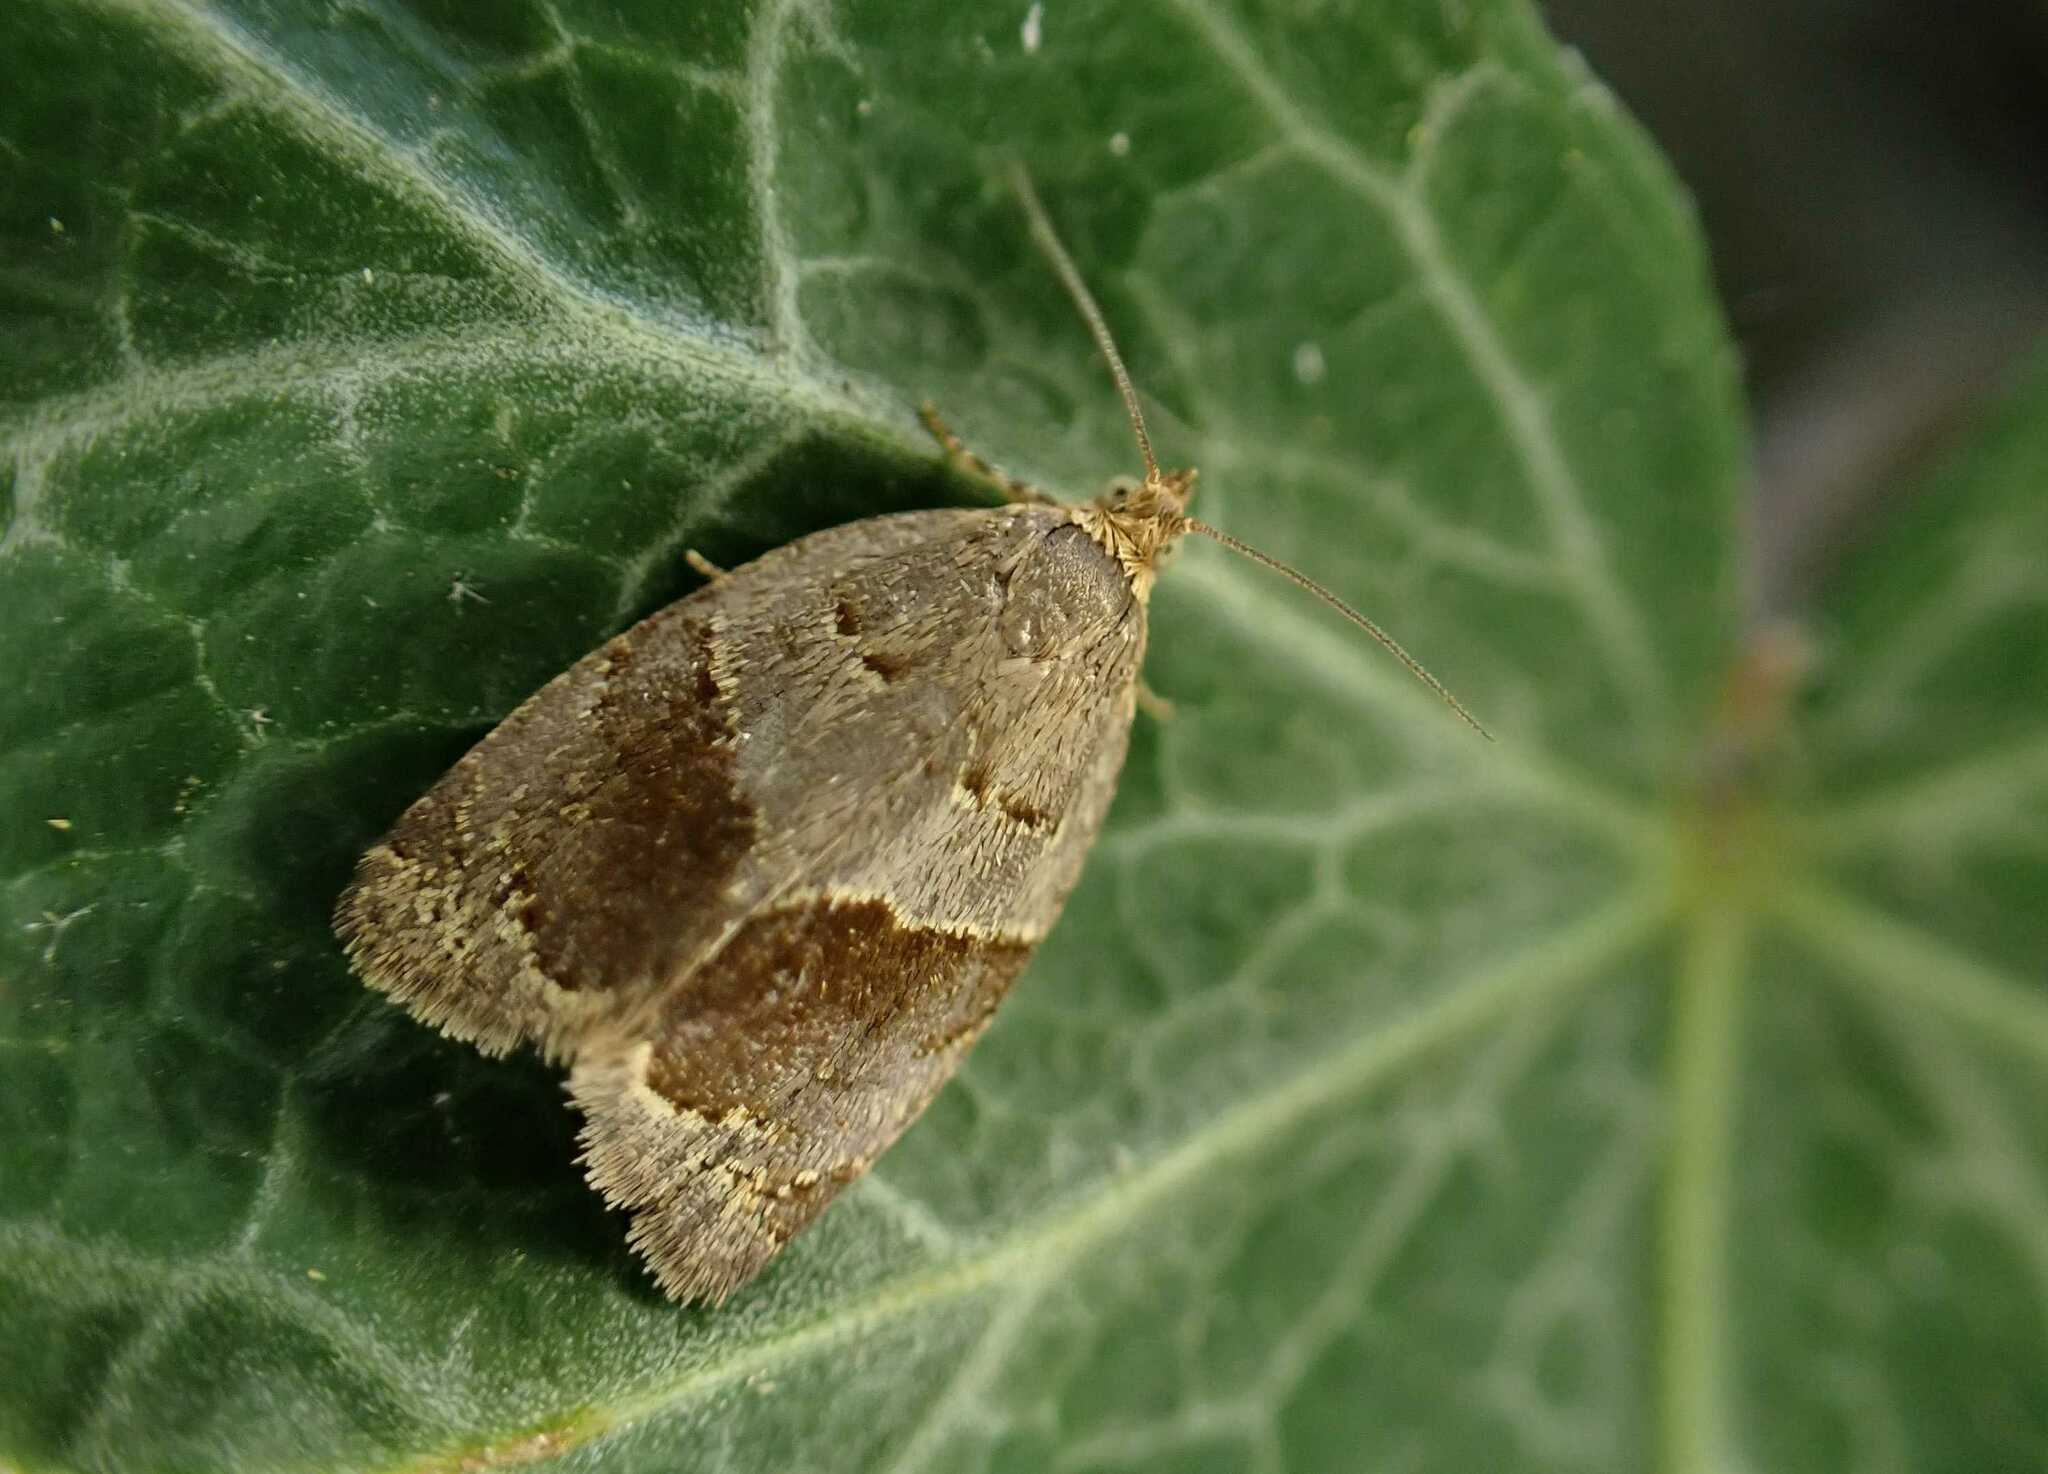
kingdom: Animalia
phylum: Arthropoda
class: Insecta
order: Lepidoptera
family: Tortricidae
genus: Clepsis
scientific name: Clepsis dumicolana
